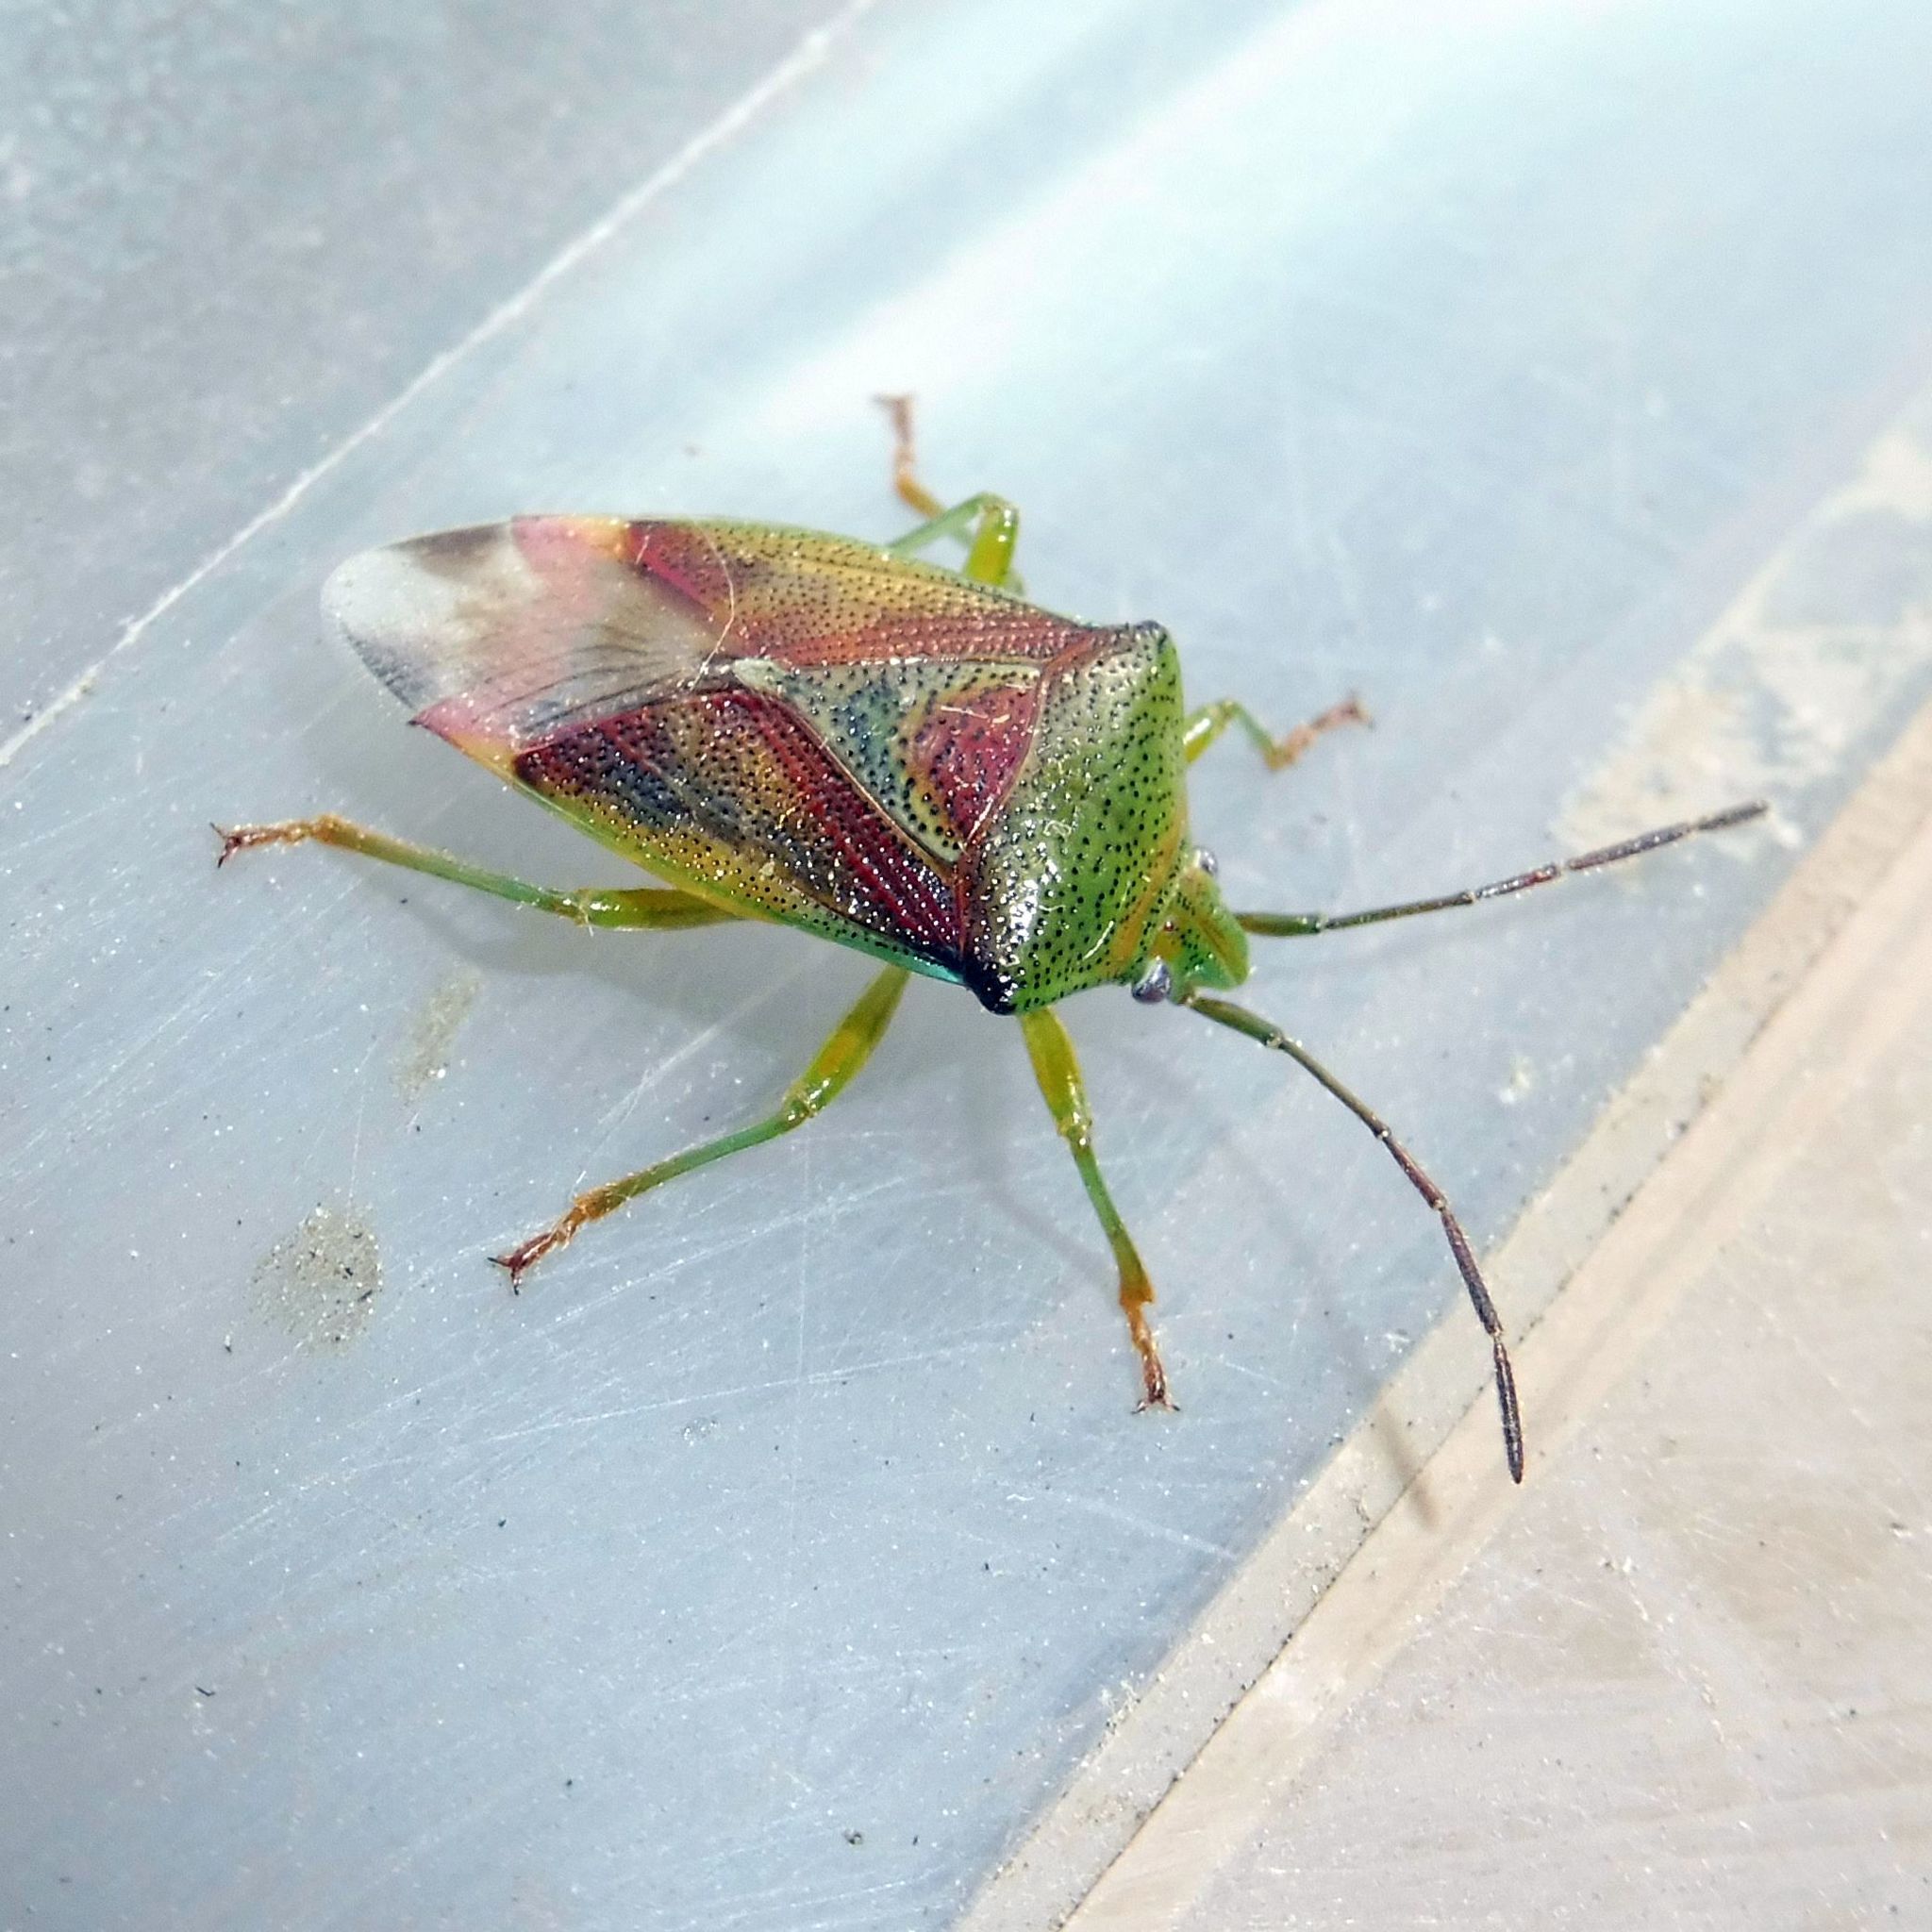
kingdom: Animalia
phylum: Arthropoda
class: Insecta
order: Hemiptera
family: Acanthosomatidae
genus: Elasmostethus
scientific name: Elasmostethus interstinctus
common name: Birch shieldbug
